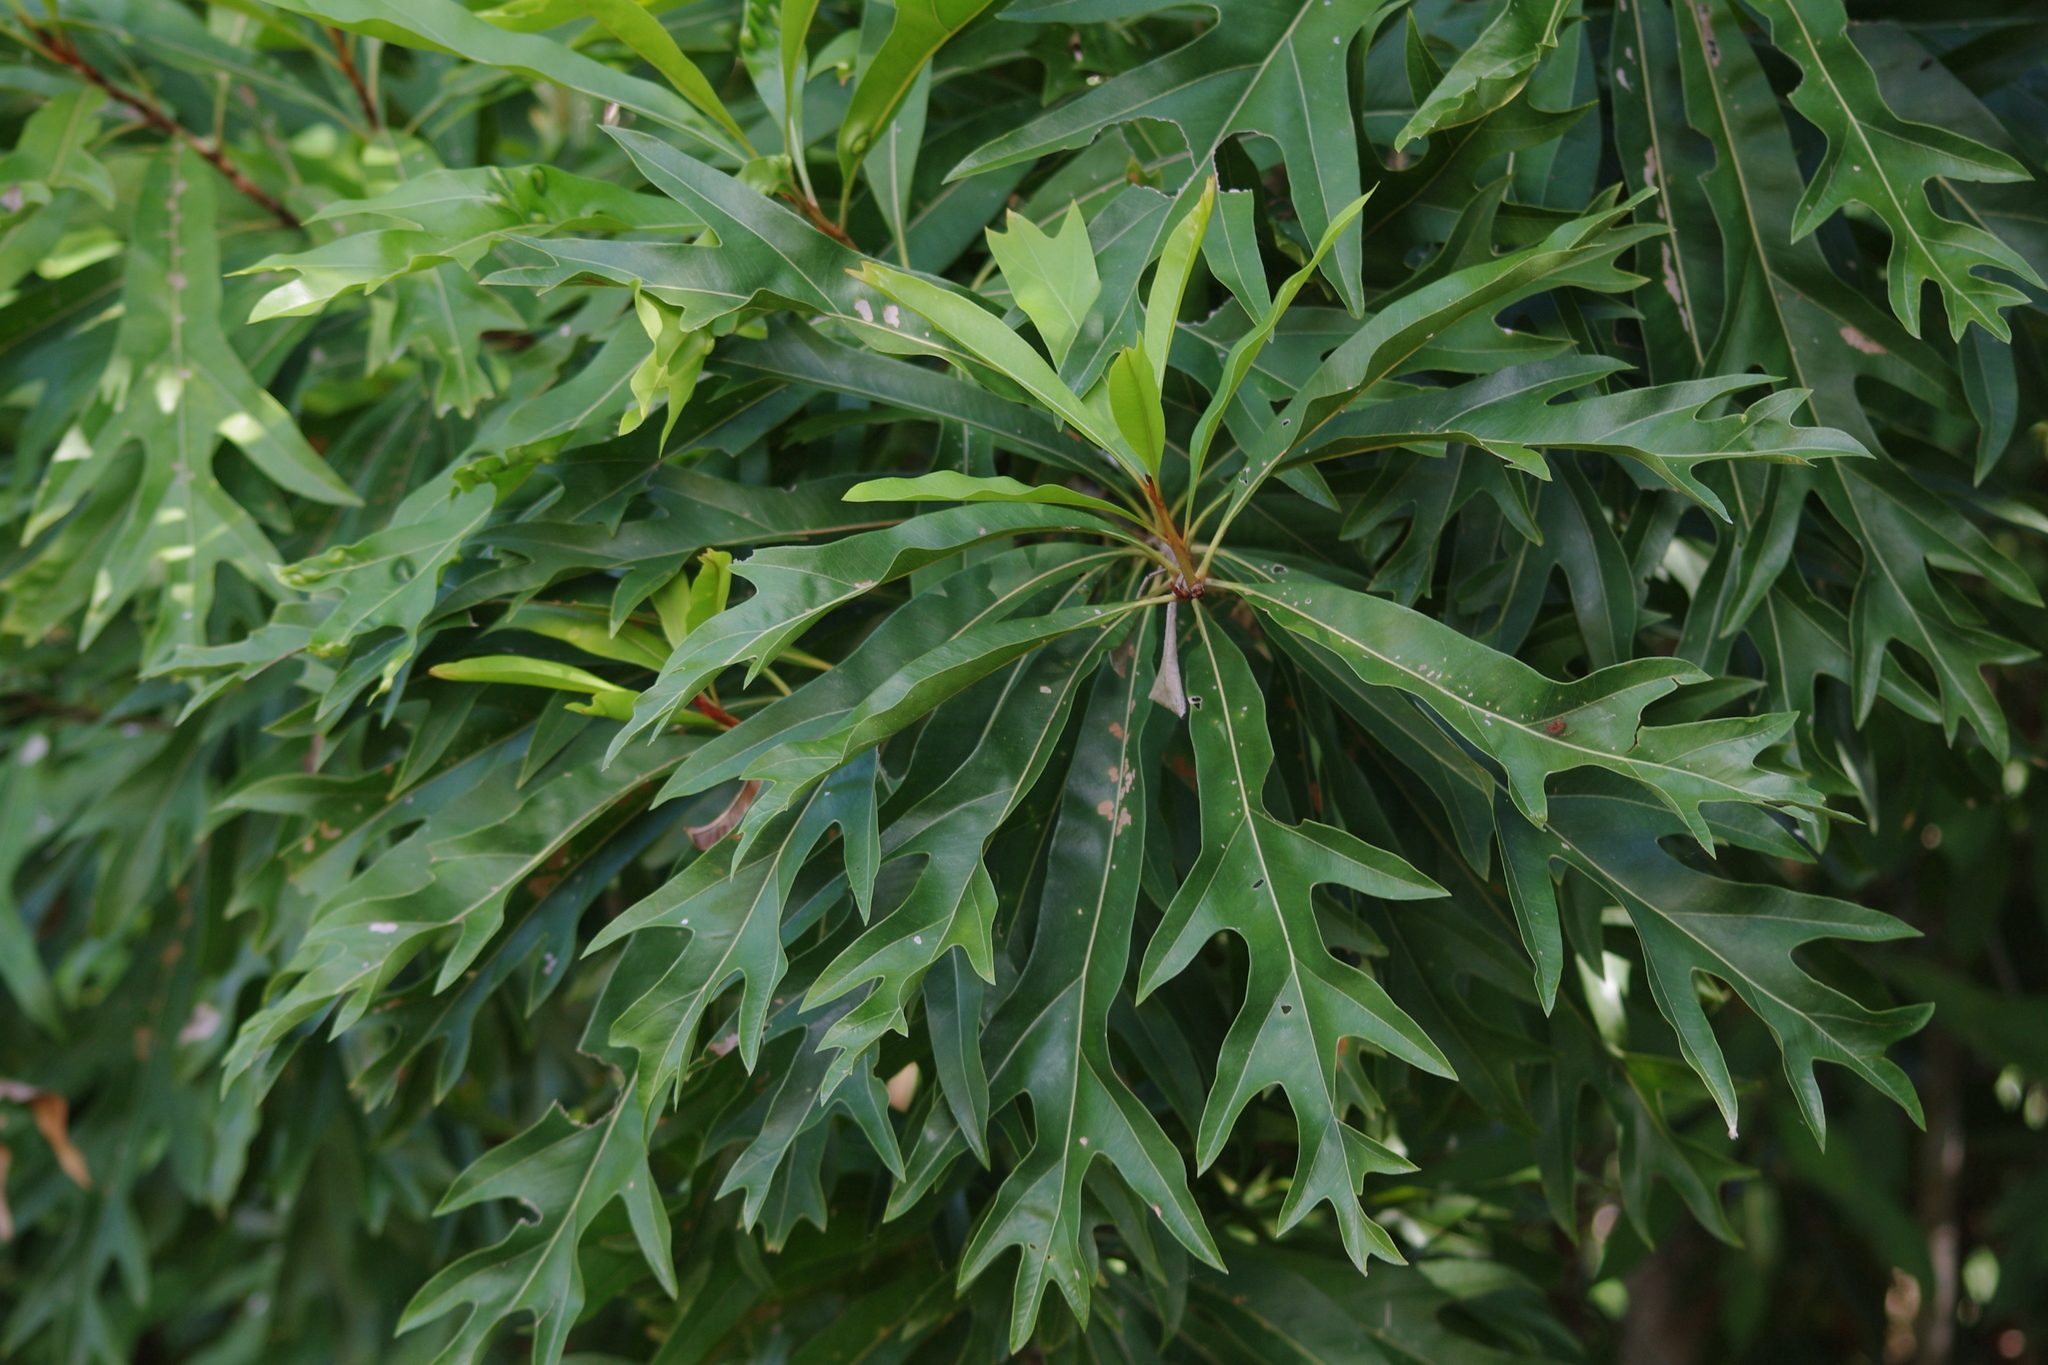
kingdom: Plantae
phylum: Tracheophyta
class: Magnoliopsida
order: Proteales
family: Proteaceae
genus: Darlingia
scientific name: Darlingia darlingiana
